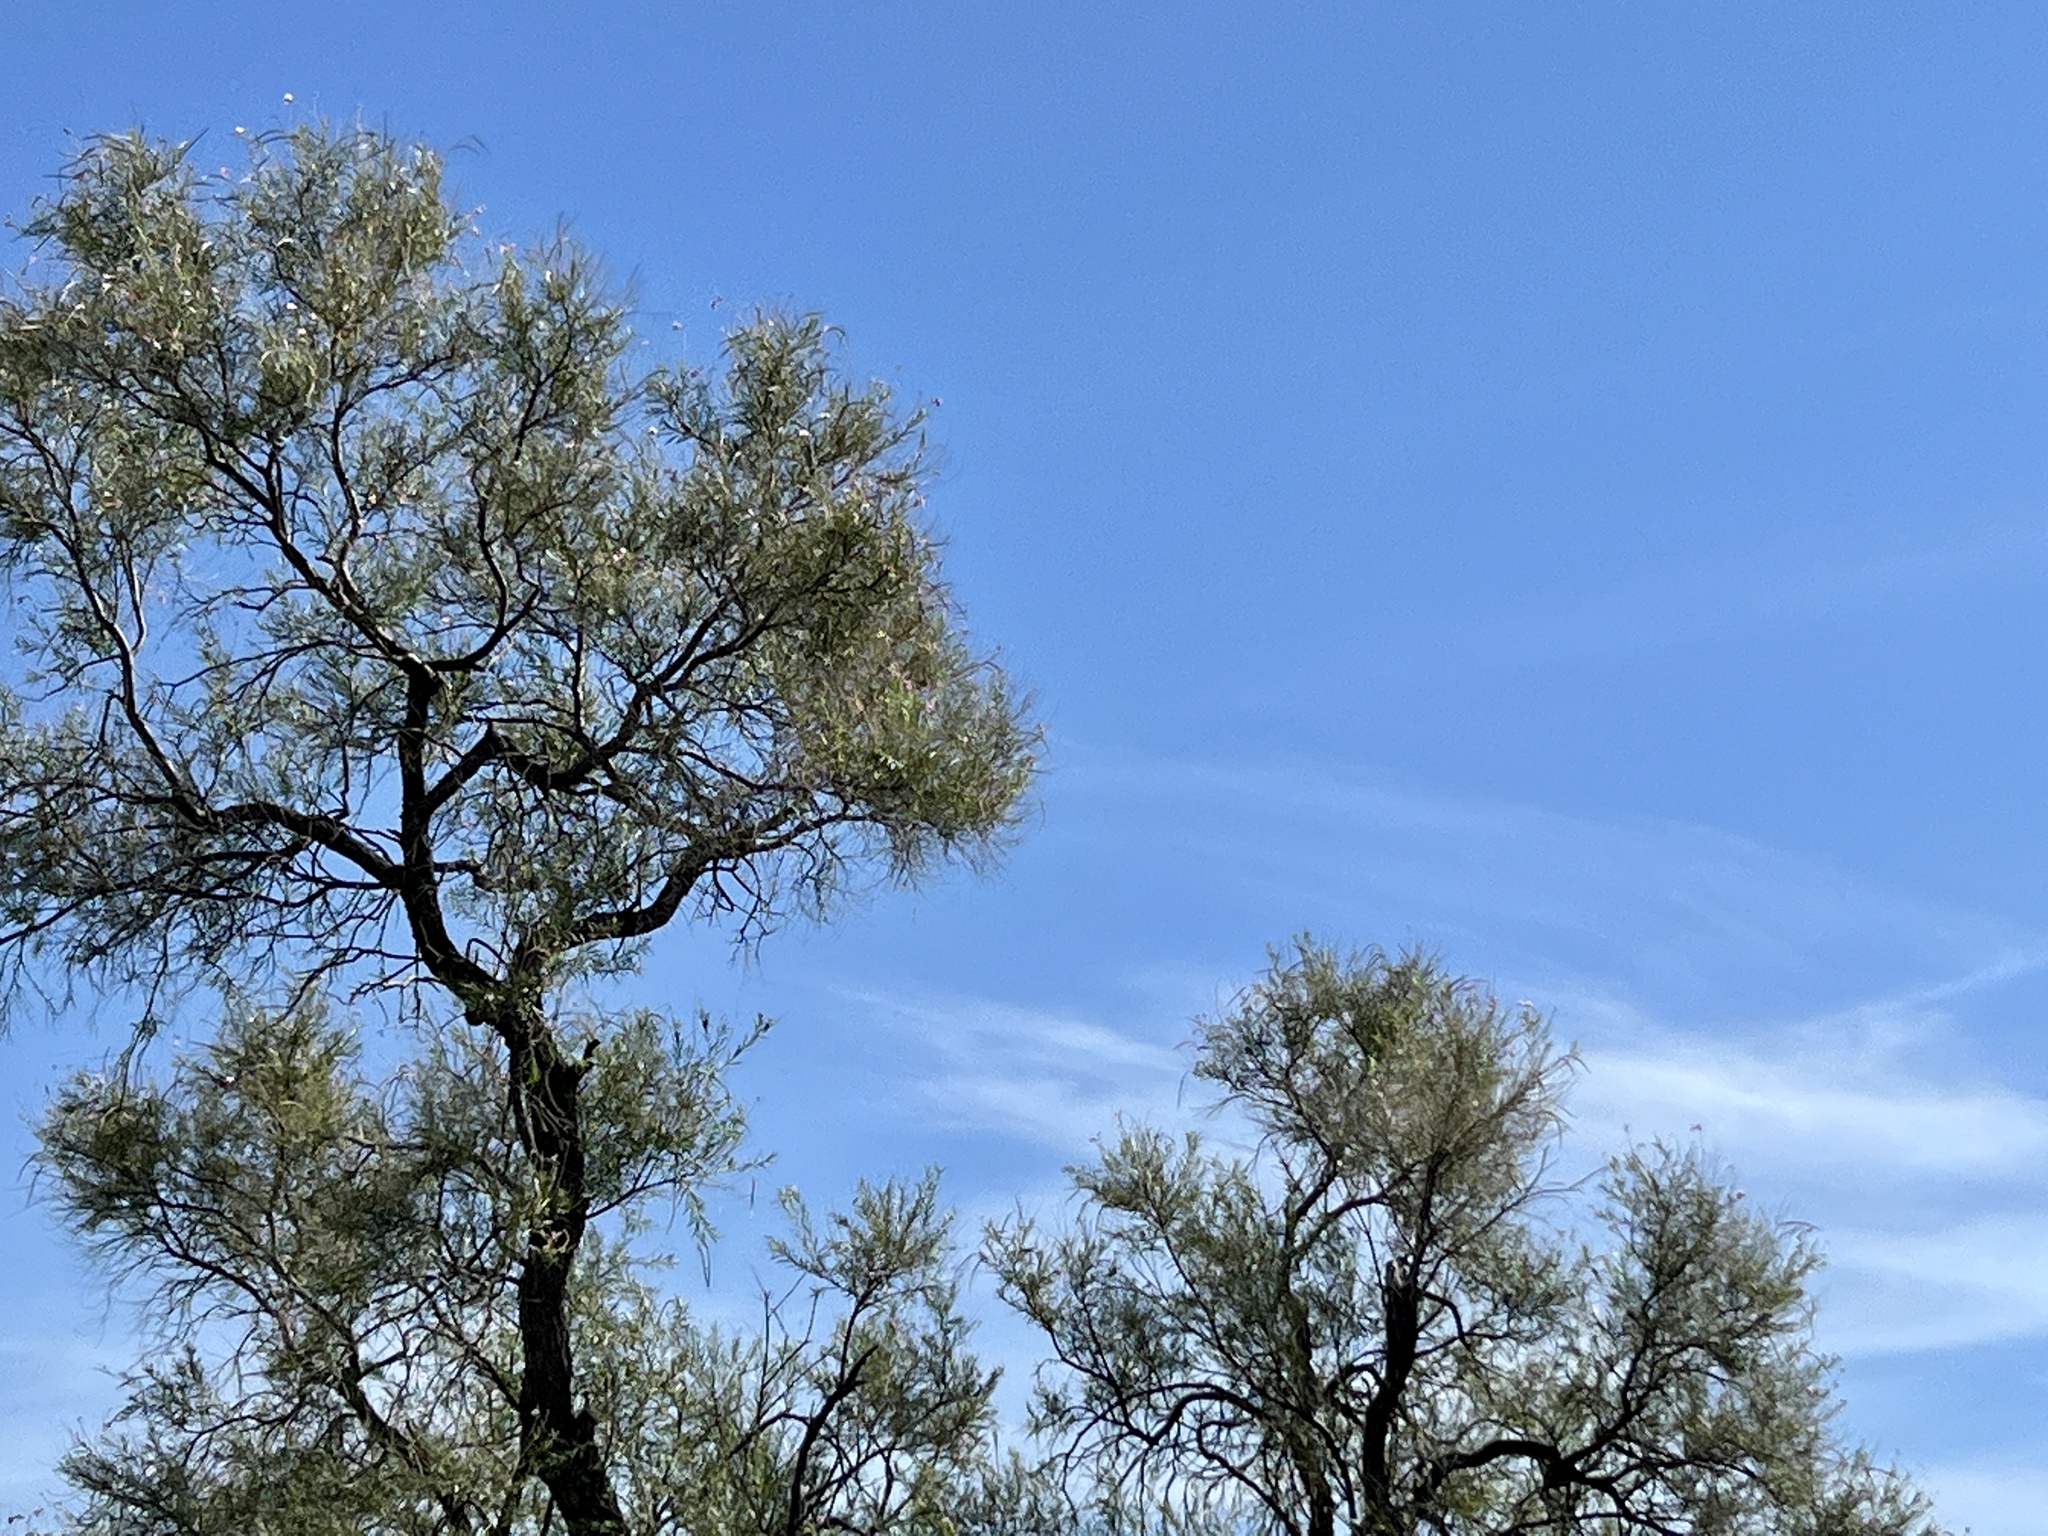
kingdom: Plantae
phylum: Tracheophyta
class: Magnoliopsida
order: Lamiales
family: Bignoniaceae
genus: Chilopsis
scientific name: Chilopsis linearis
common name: Desert-willow
